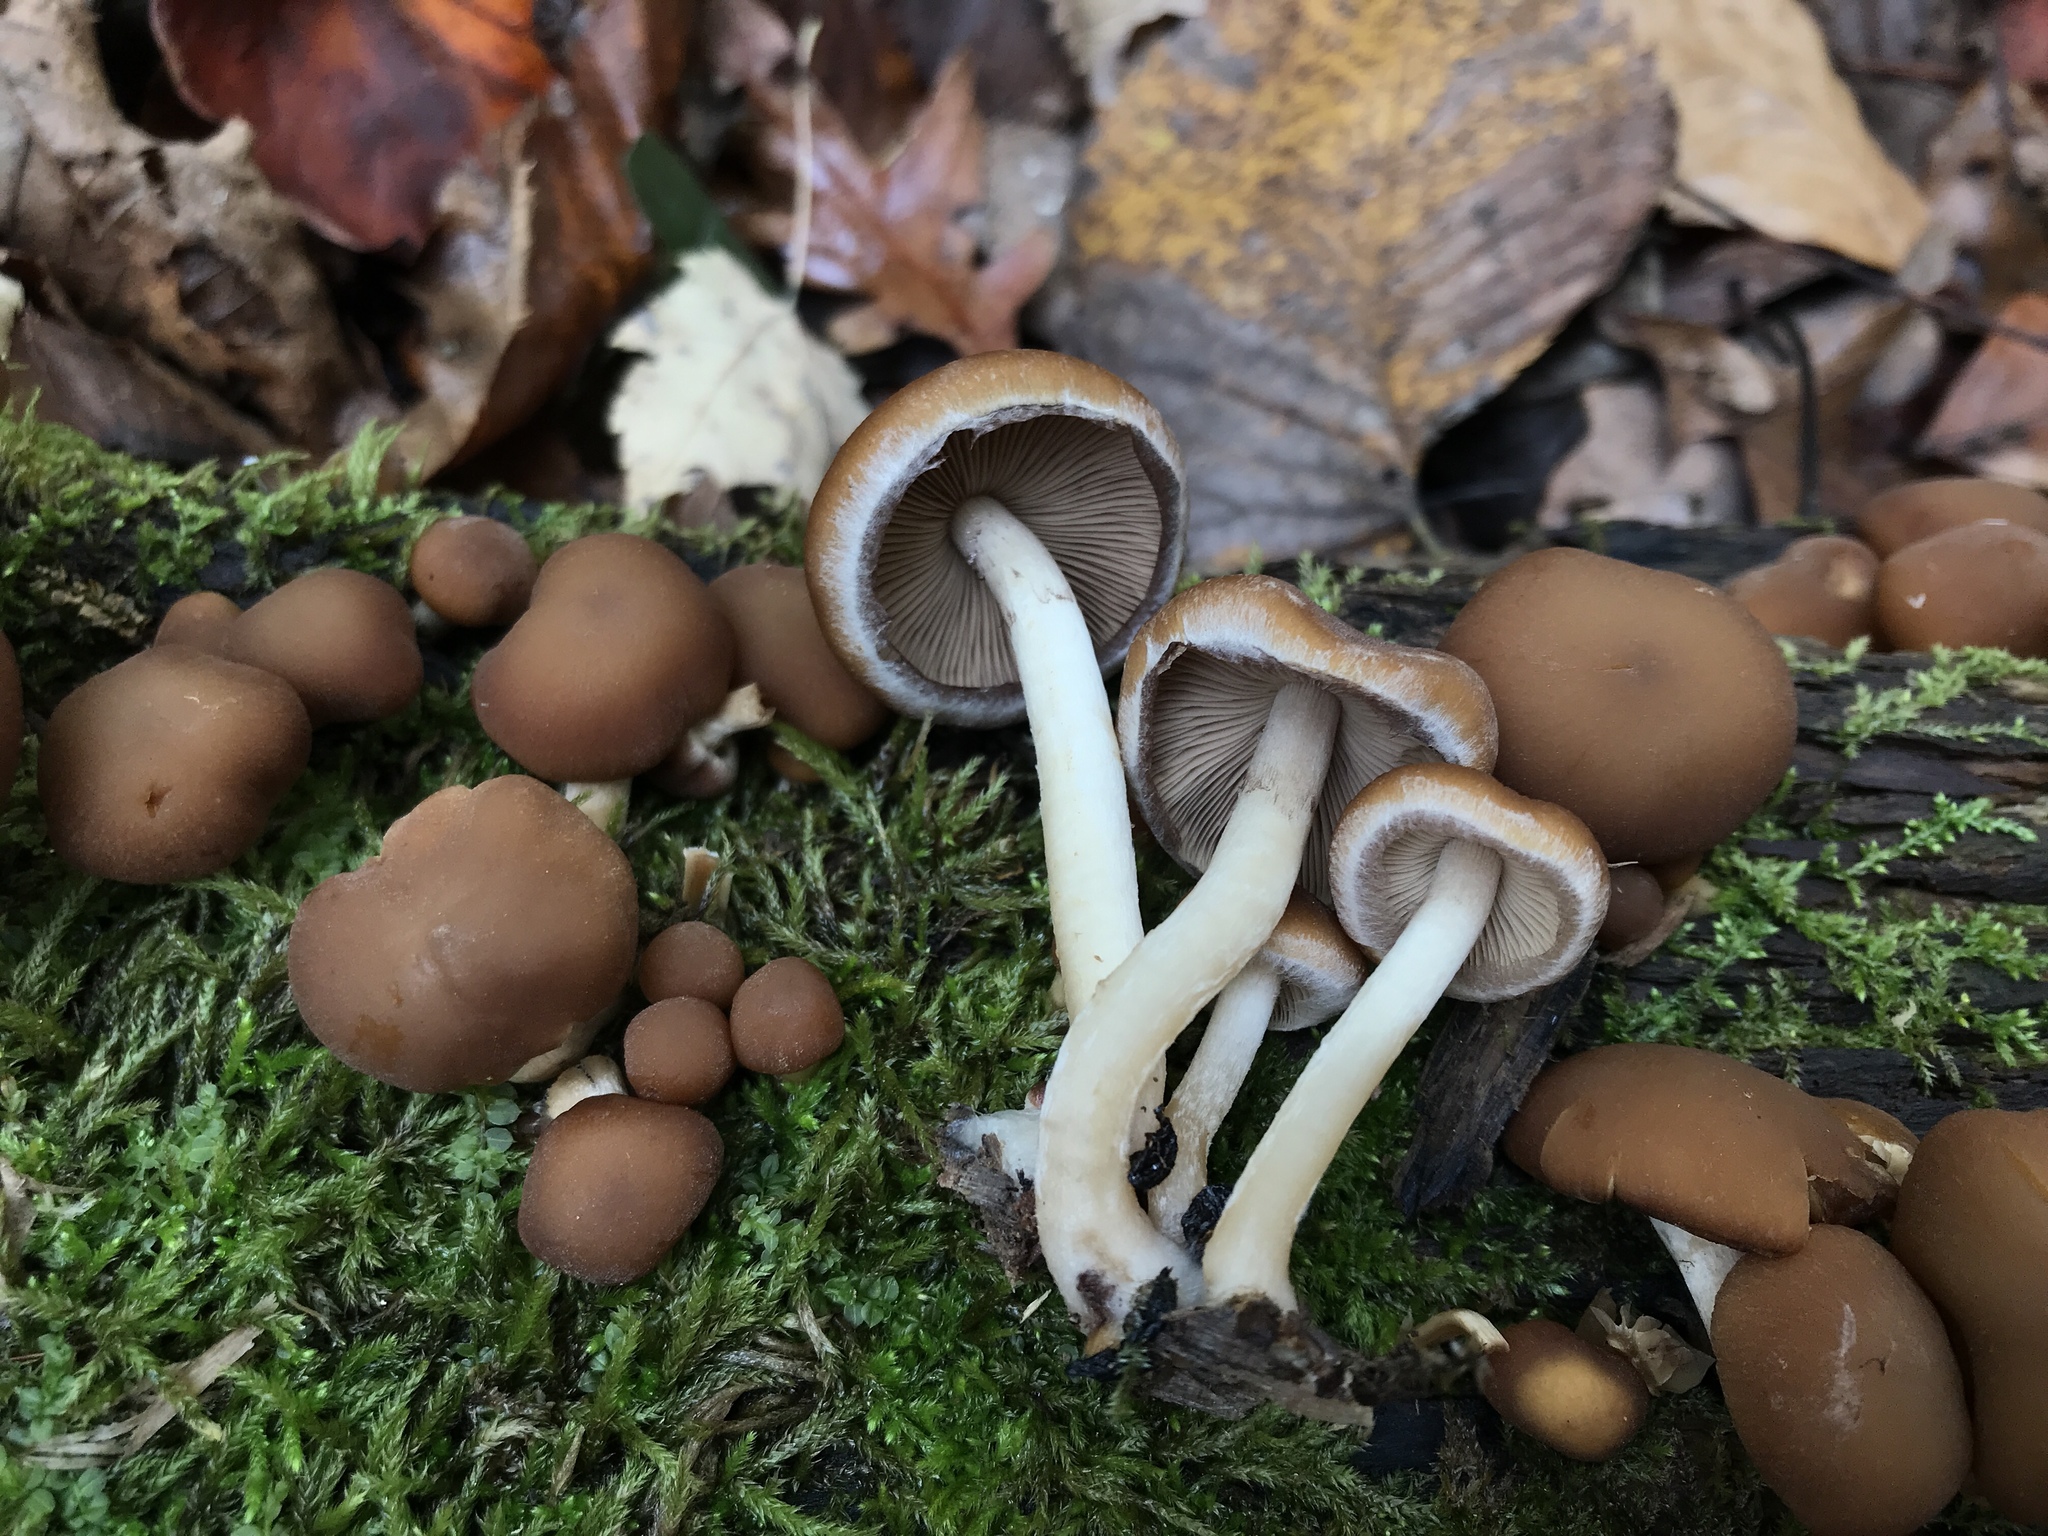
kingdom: Fungi
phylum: Basidiomycota
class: Agaricomycetes
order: Agaricales
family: Psathyrellaceae
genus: Psathyrella
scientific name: Psathyrella piluliformis
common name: Common stump brittlestem
